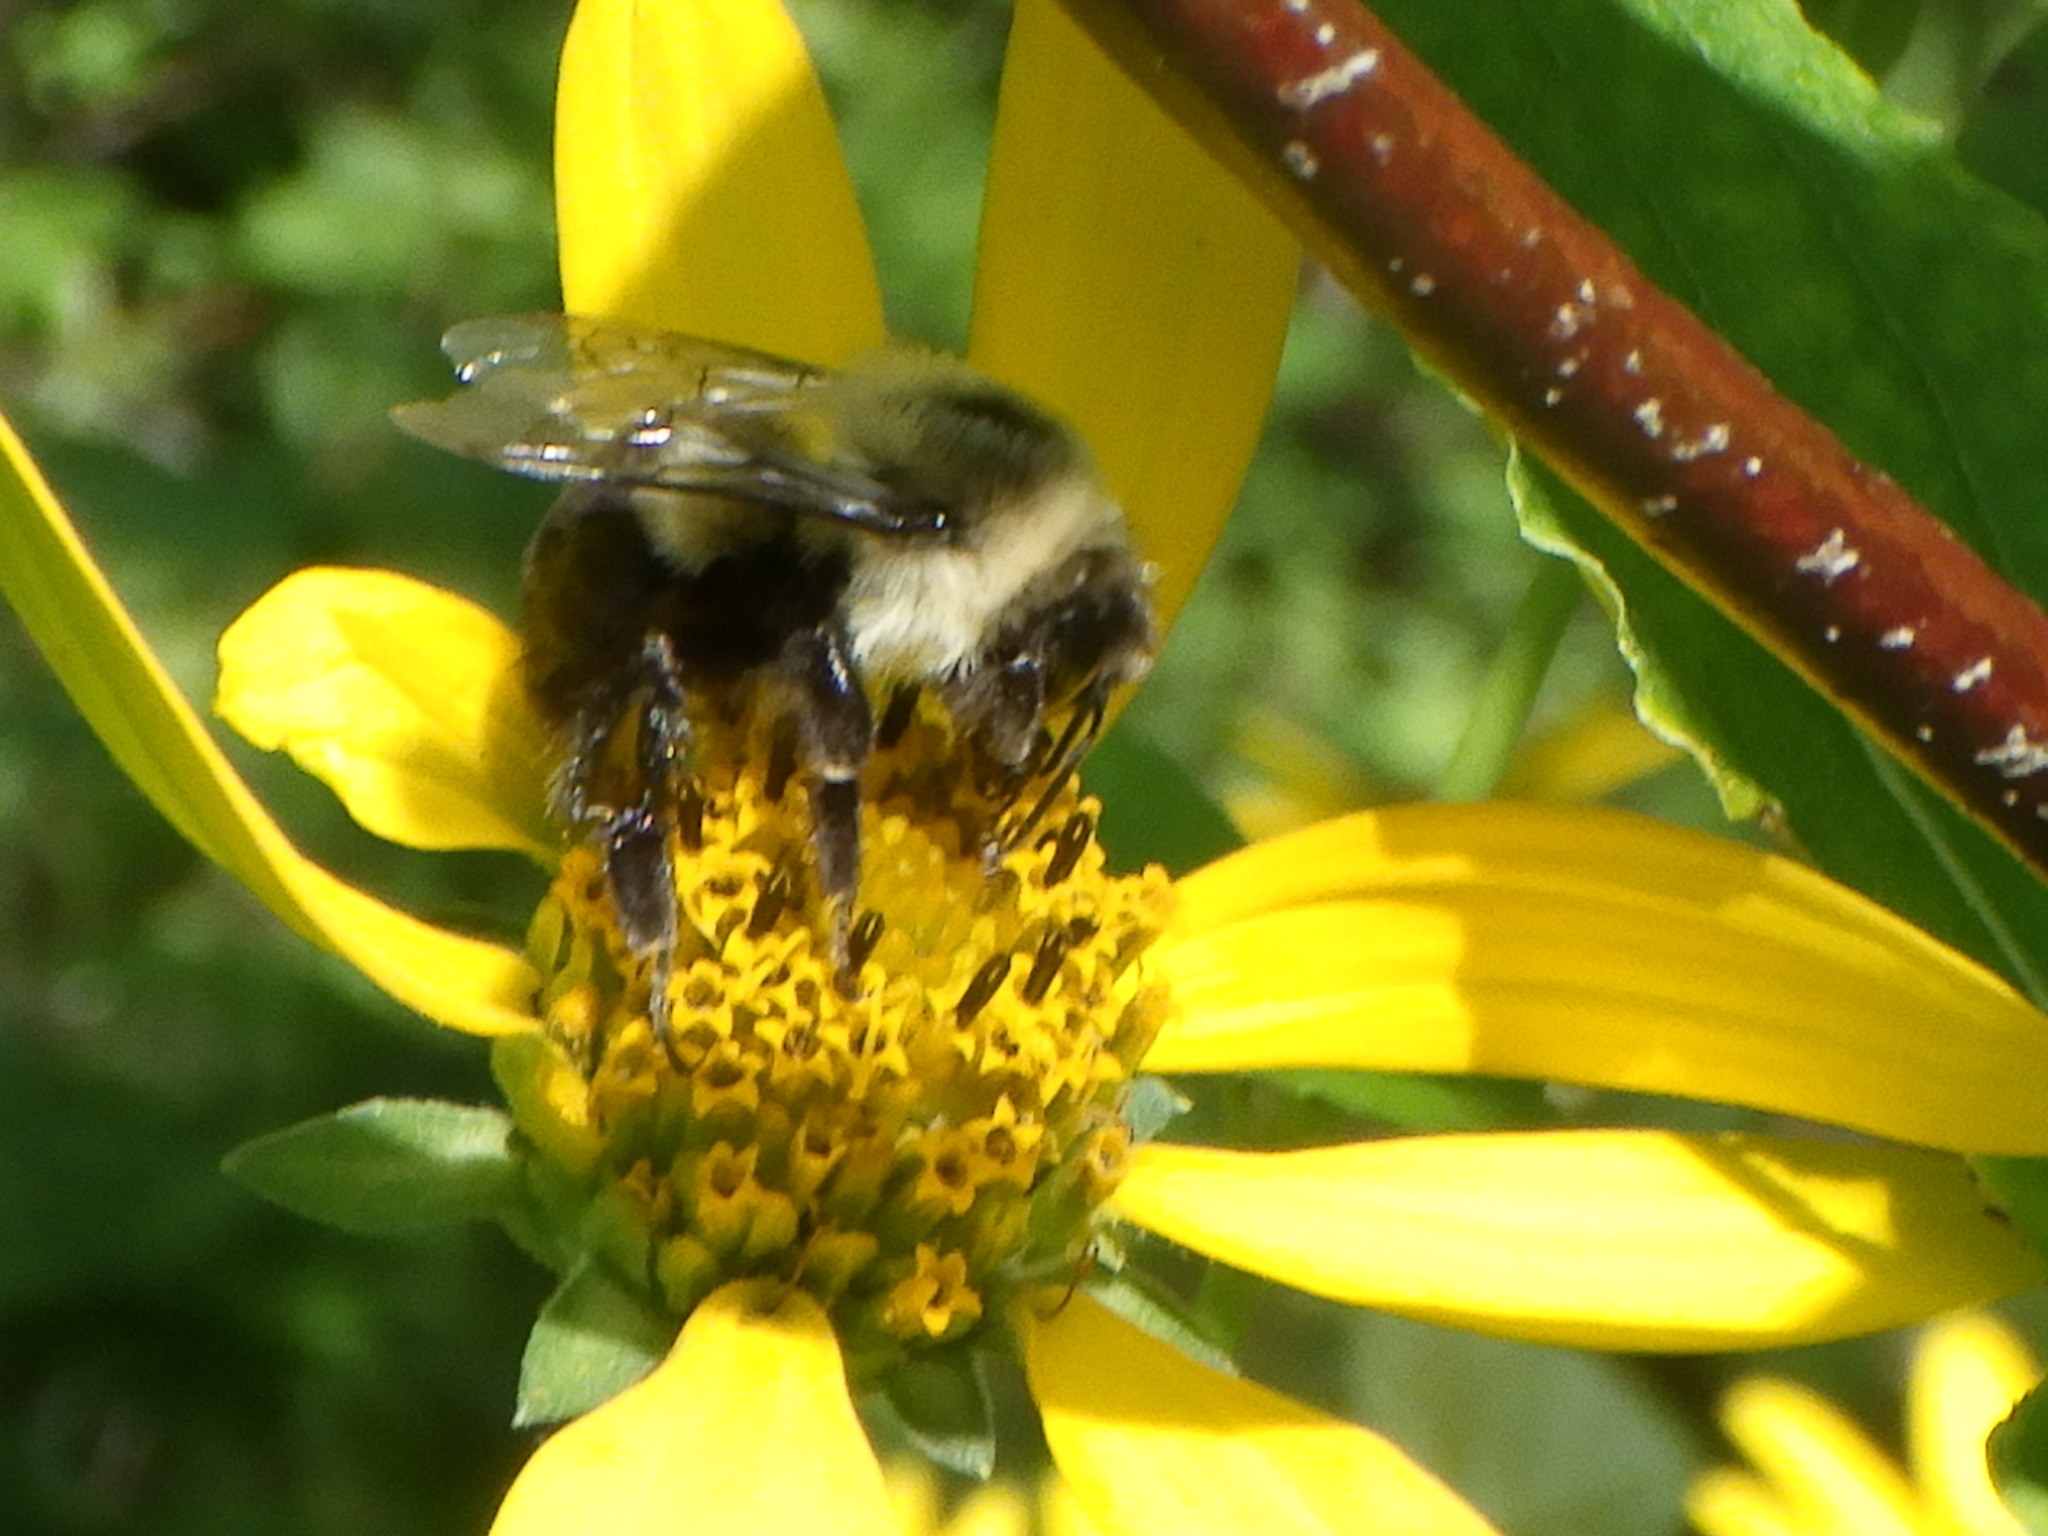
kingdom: Animalia
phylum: Arthropoda
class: Insecta
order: Hymenoptera
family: Apidae
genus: Bombus
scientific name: Bombus impatiens
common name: Common eastern bumble bee
